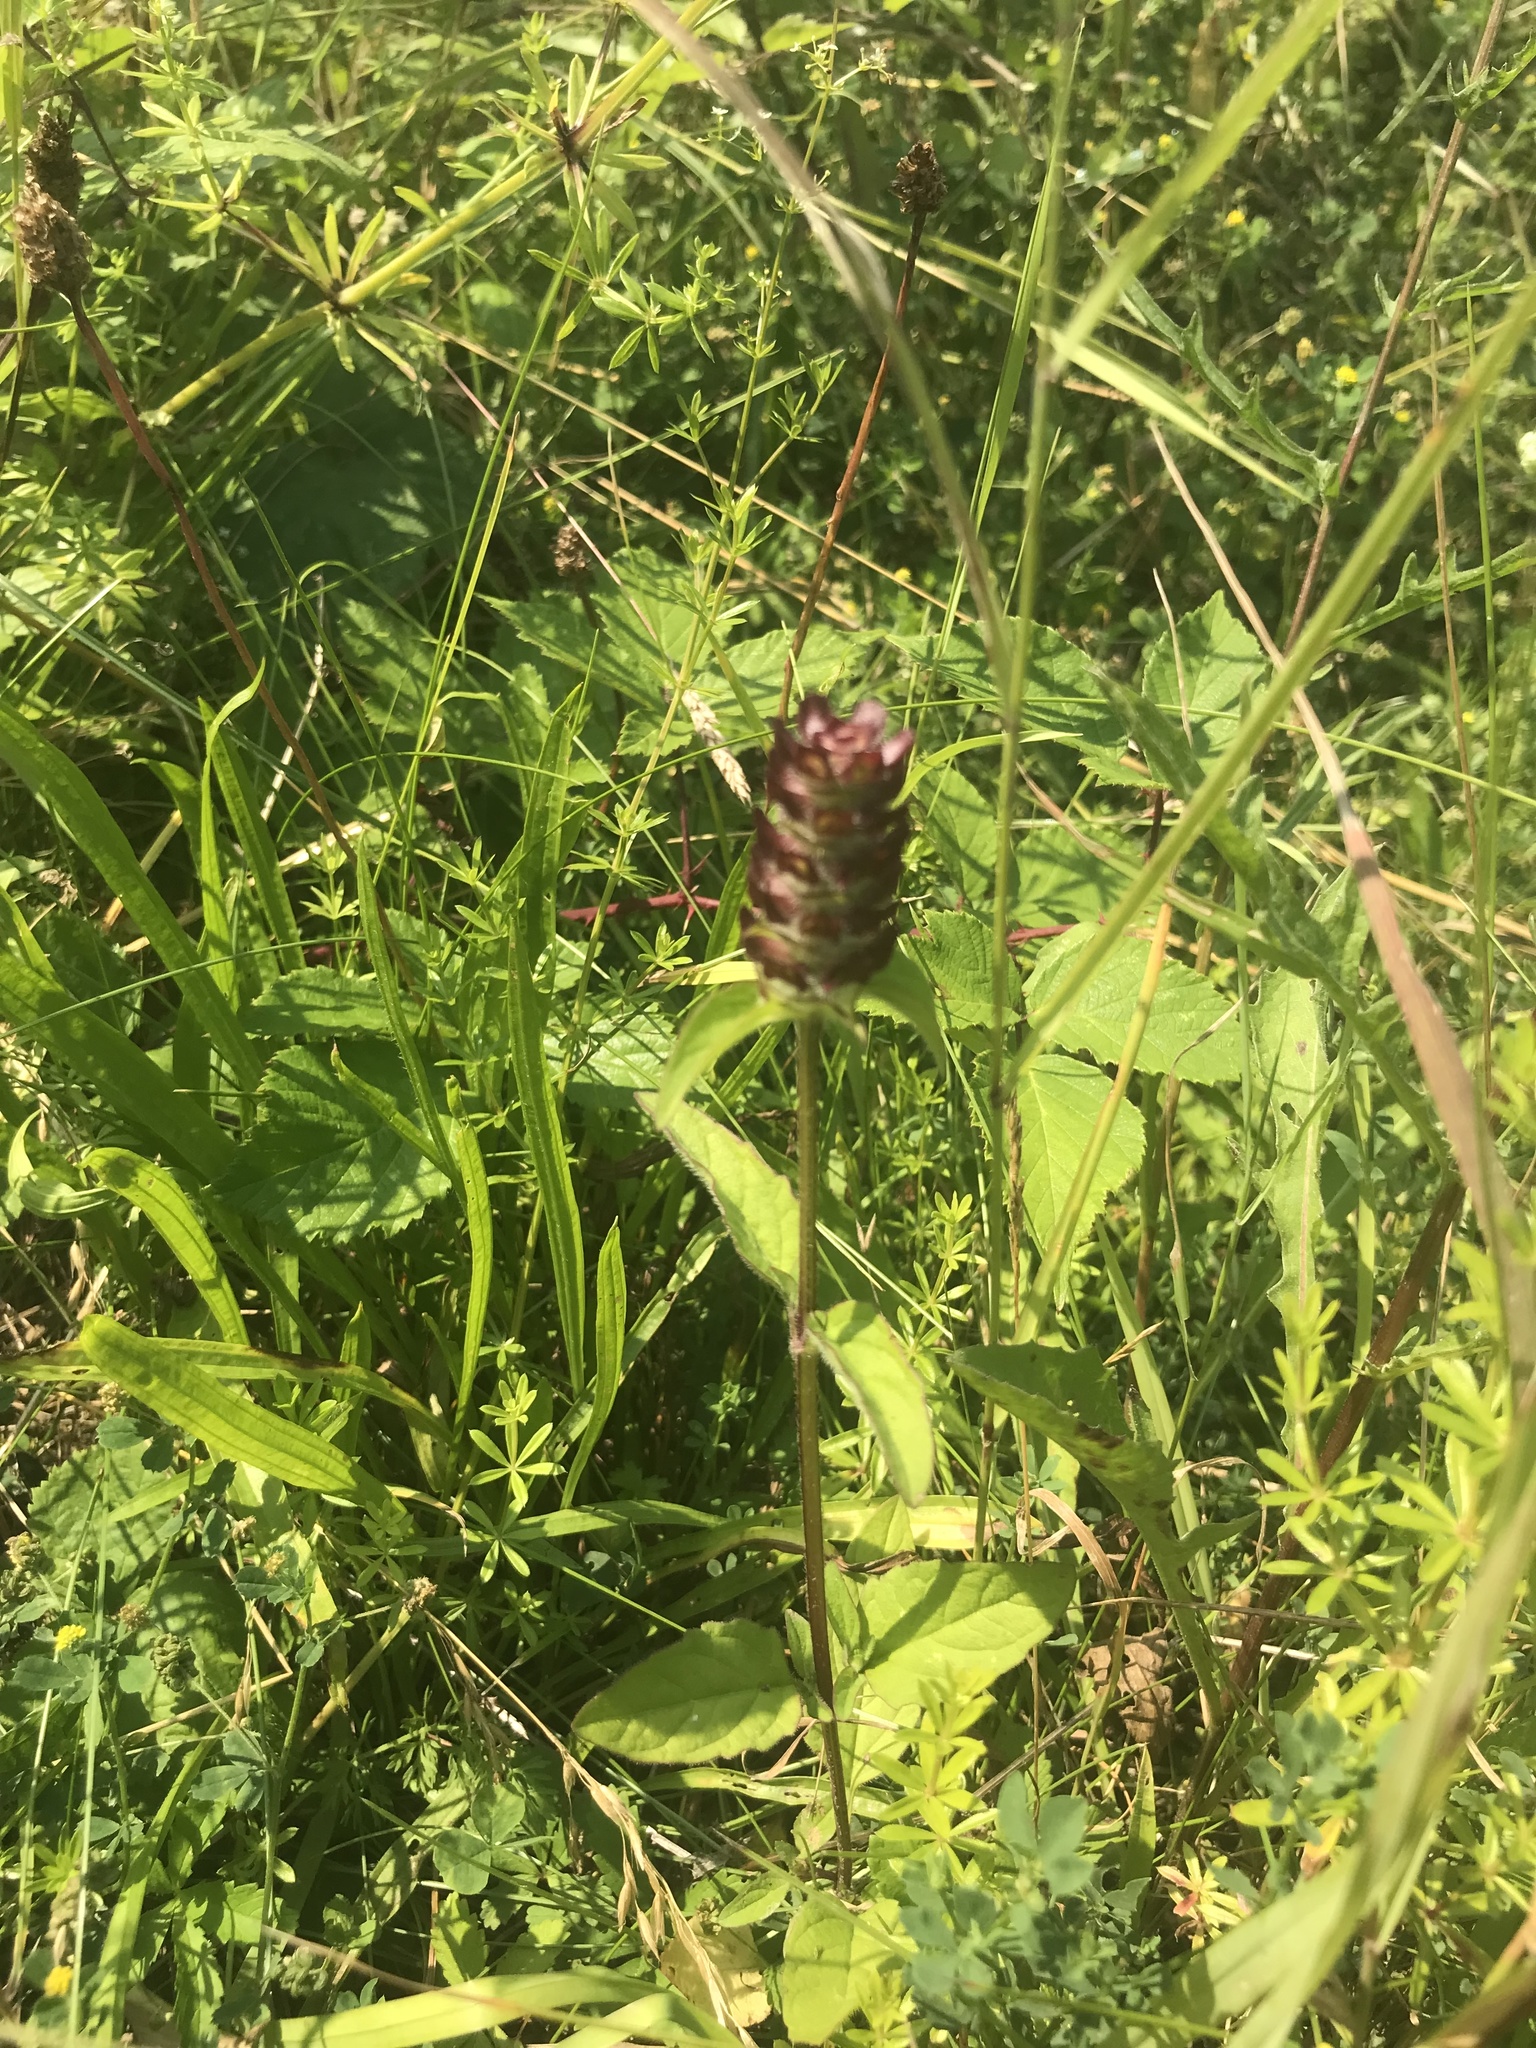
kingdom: Plantae
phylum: Tracheophyta
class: Magnoliopsida
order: Lamiales
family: Lamiaceae
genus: Prunella
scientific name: Prunella vulgaris
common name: Heal-all
